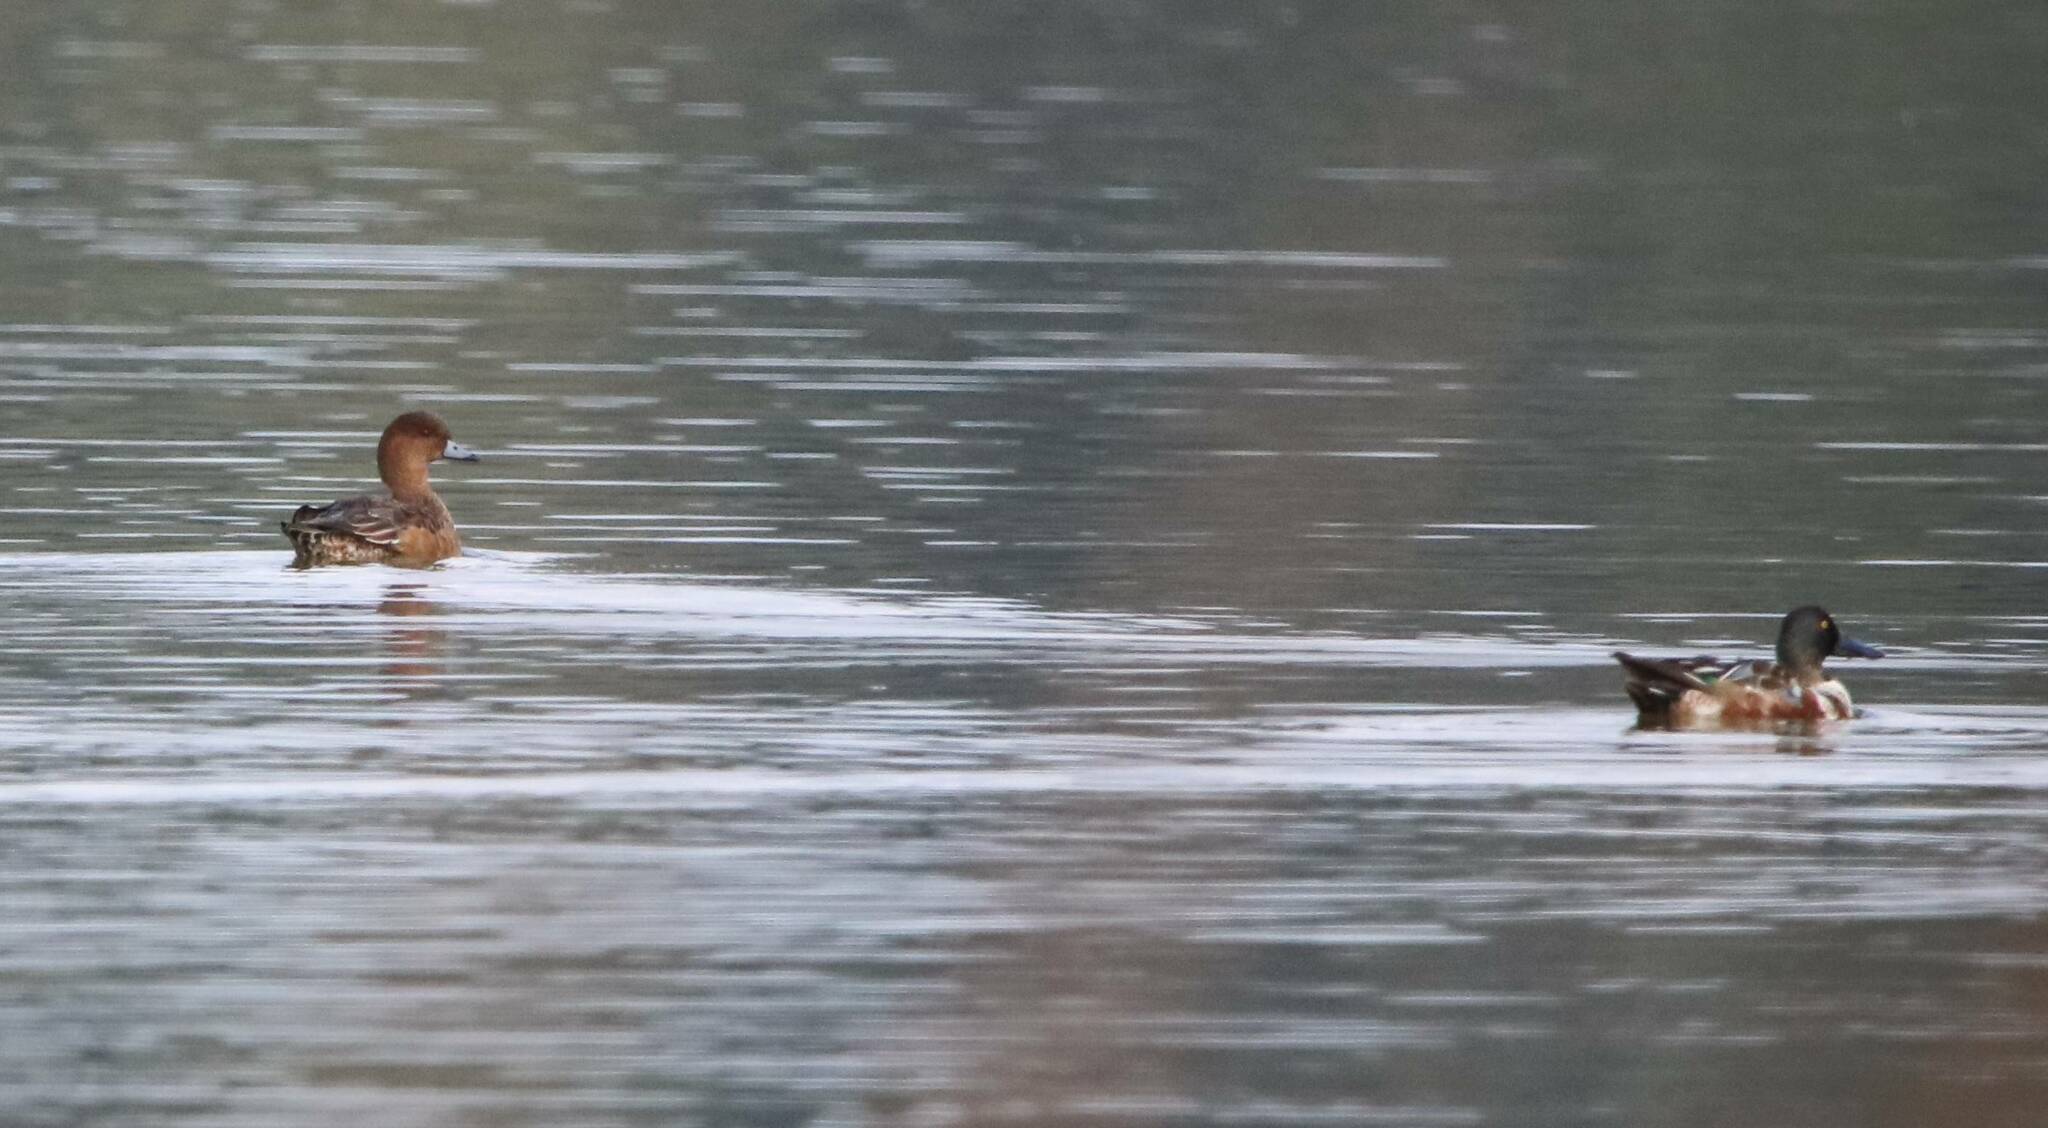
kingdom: Animalia
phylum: Chordata
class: Aves
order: Anseriformes
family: Anatidae
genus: Mareca
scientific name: Mareca penelope
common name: Eurasian wigeon
